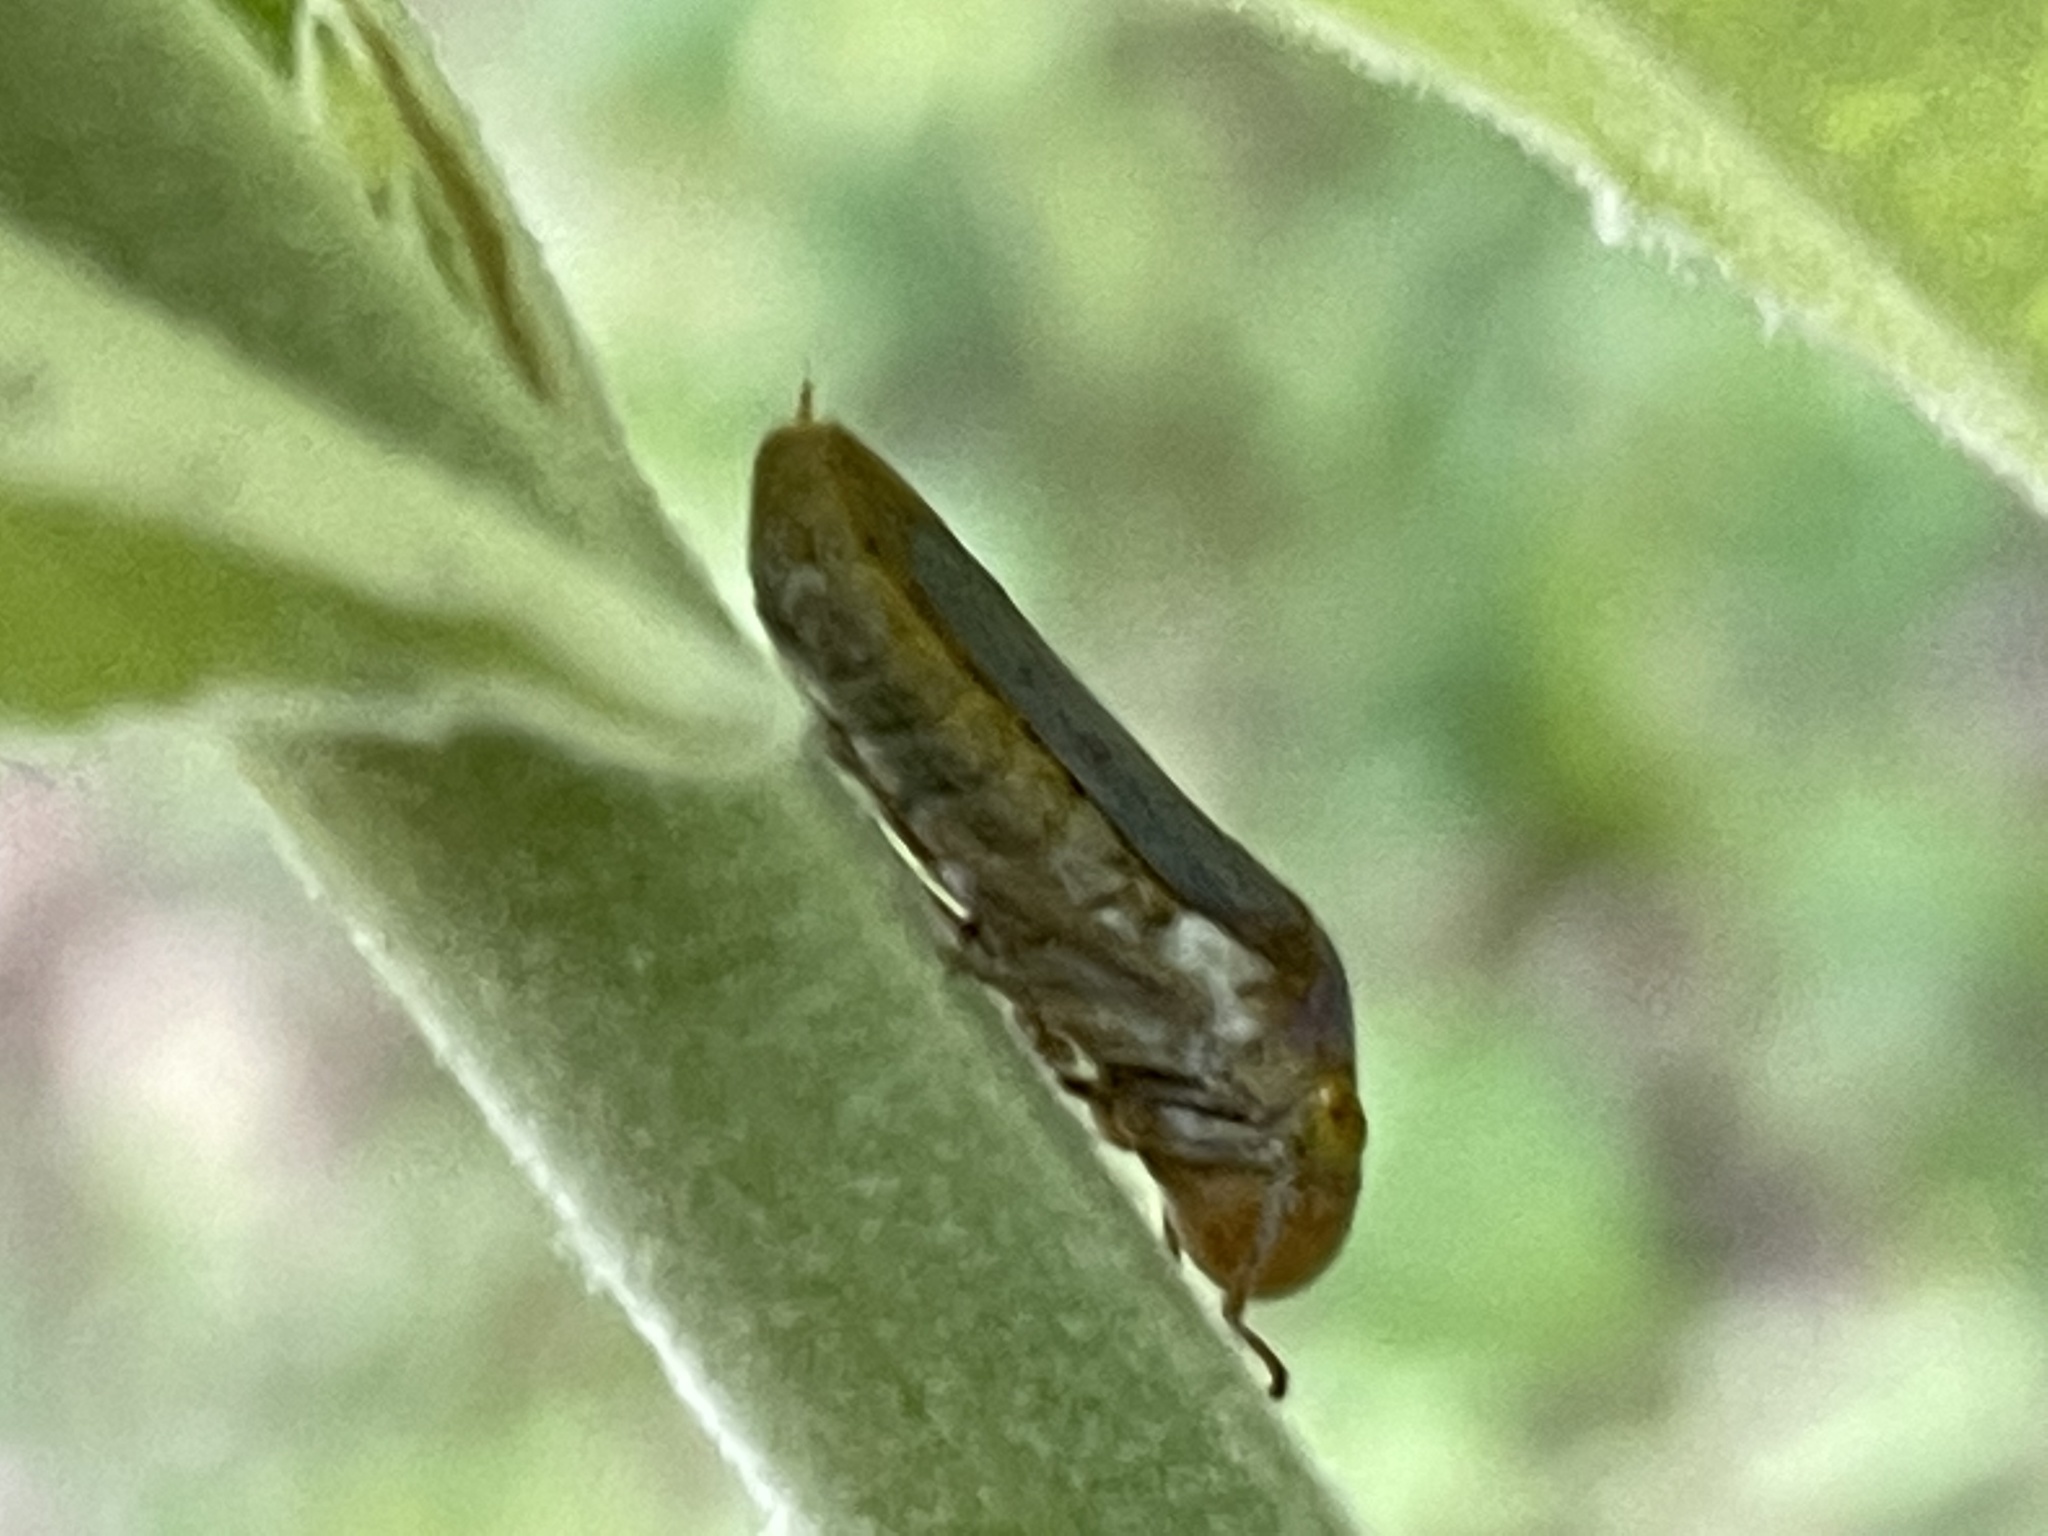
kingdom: Animalia
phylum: Arthropoda
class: Insecta
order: Hemiptera
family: Cicadellidae
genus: Oncometopia
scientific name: Oncometopia hamiltoni
